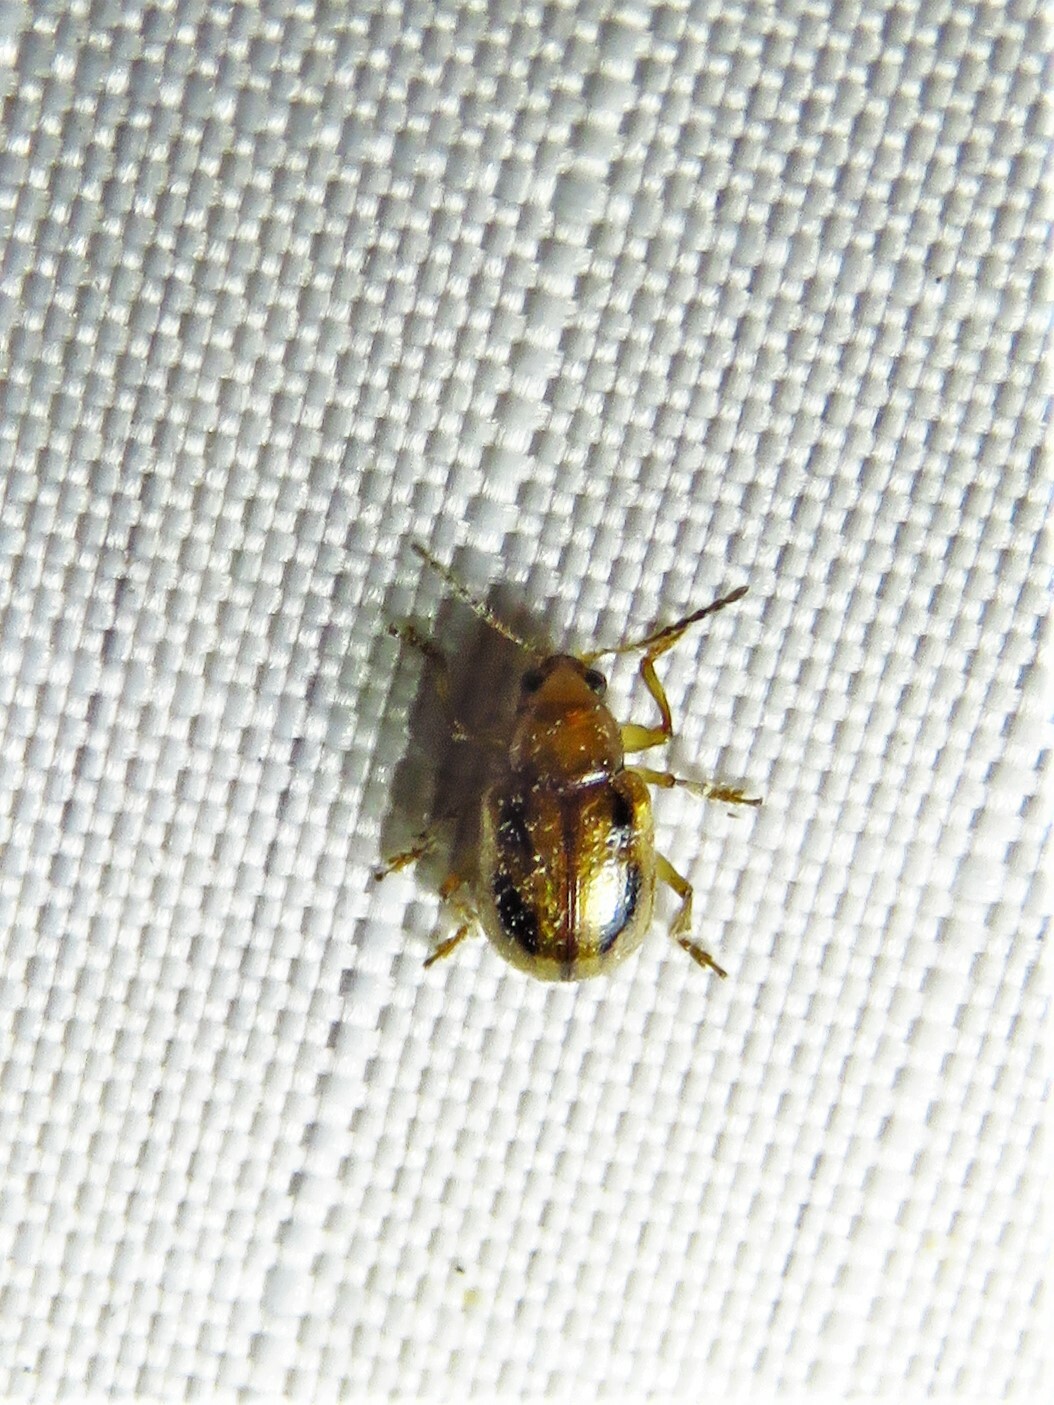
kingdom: Animalia
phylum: Arthropoda
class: Insecta
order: Coleoptera
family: Chrysomelidae
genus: Paria
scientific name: Paria quadriguttata
